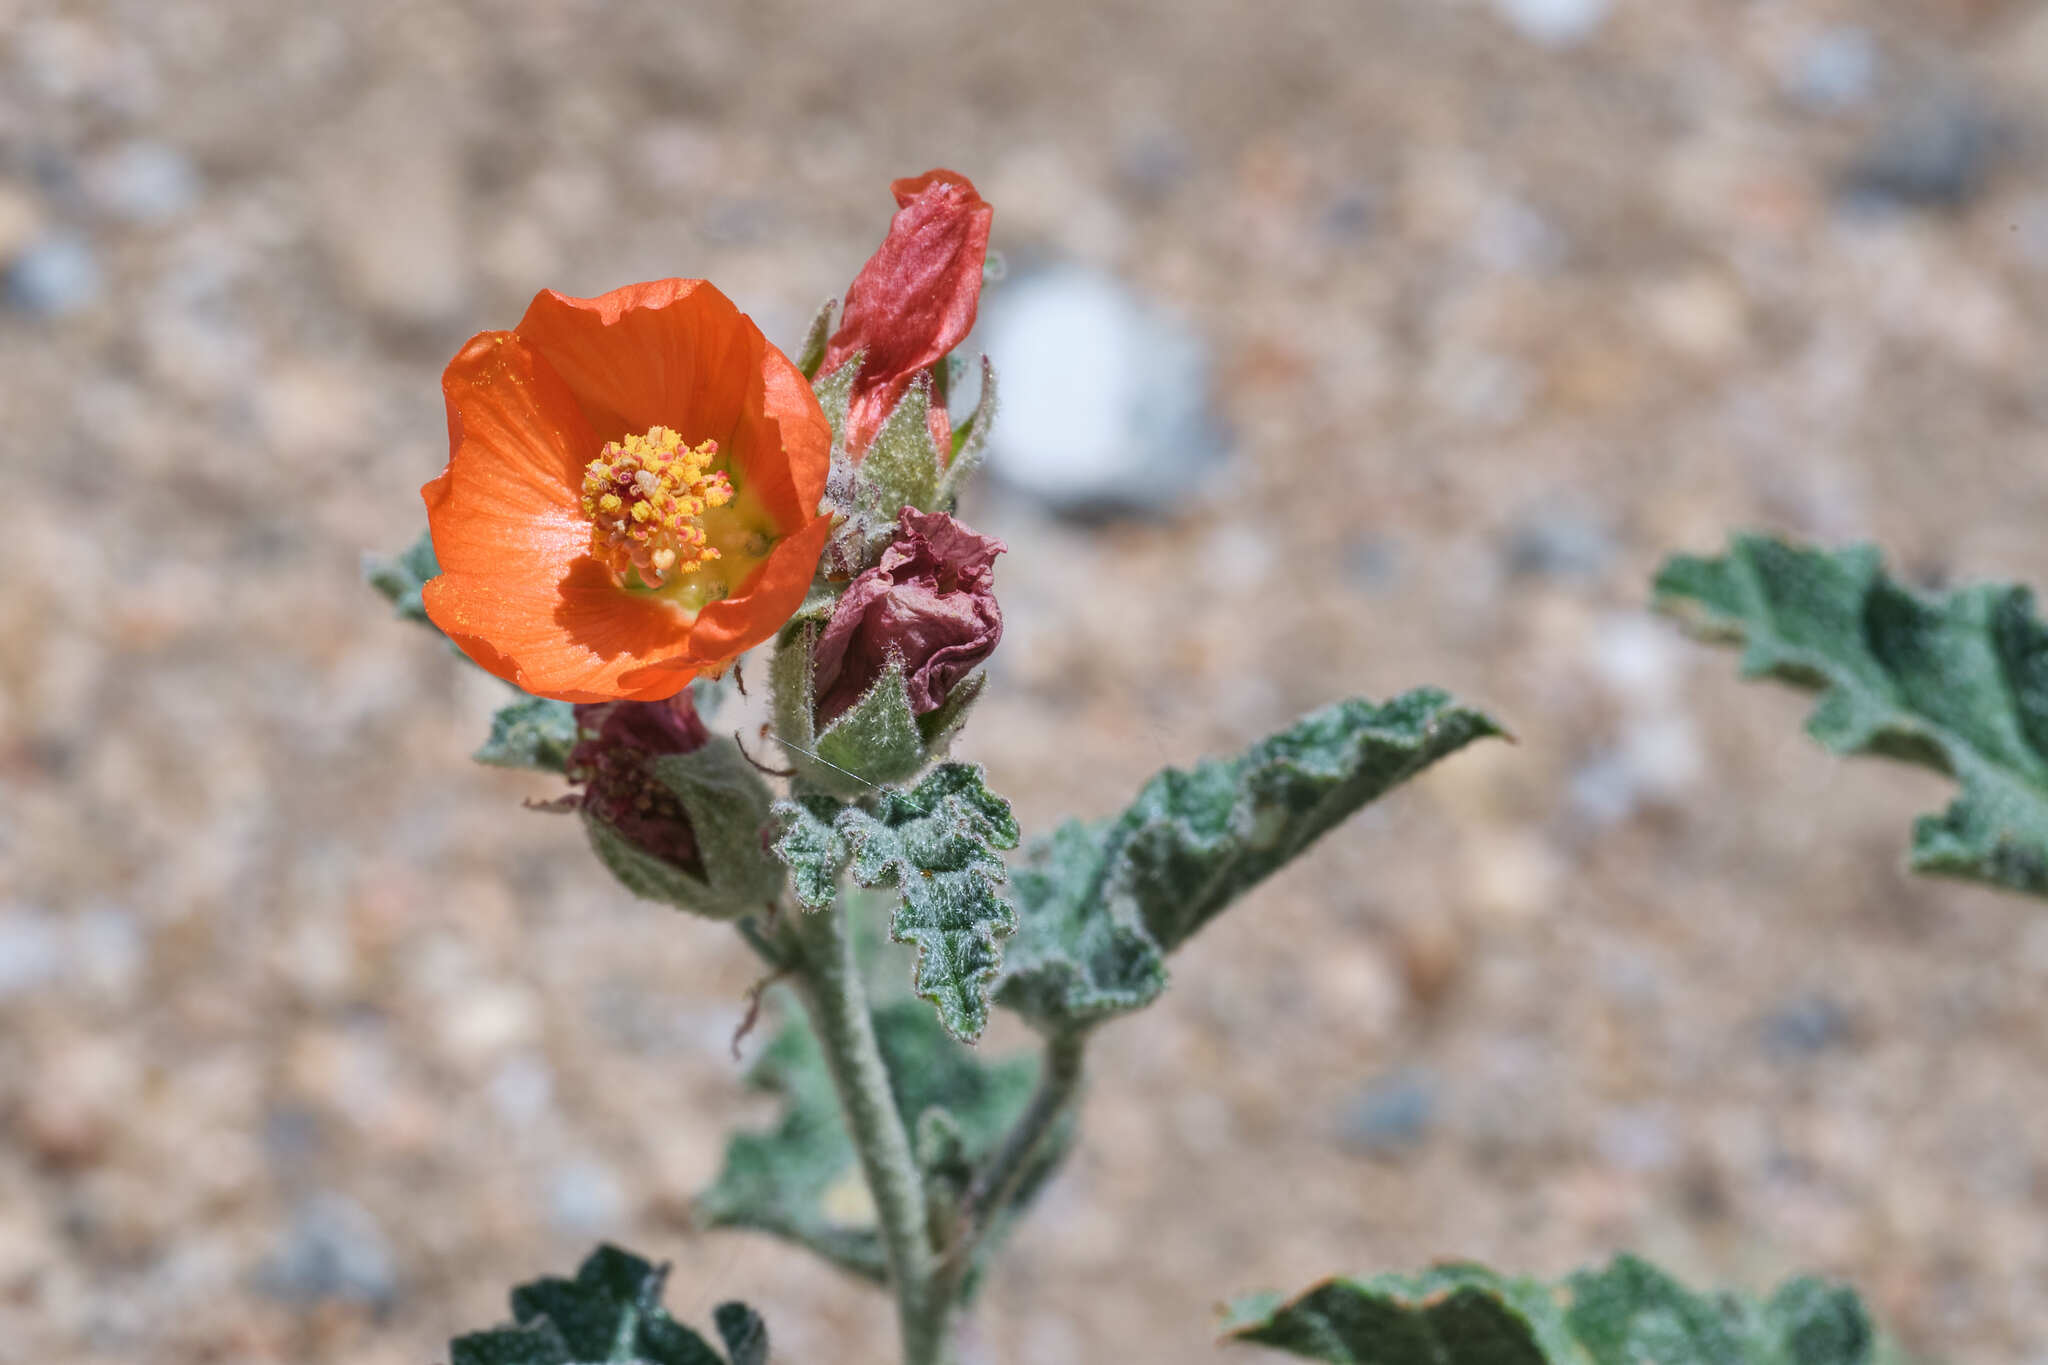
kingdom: Plantae
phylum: Tracheophyta
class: Magnoliopsida
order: Malvales
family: Malvaceae
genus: Sphaeralcea
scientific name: Sphaeralcea ambigua
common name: Apricot globe-mallow
